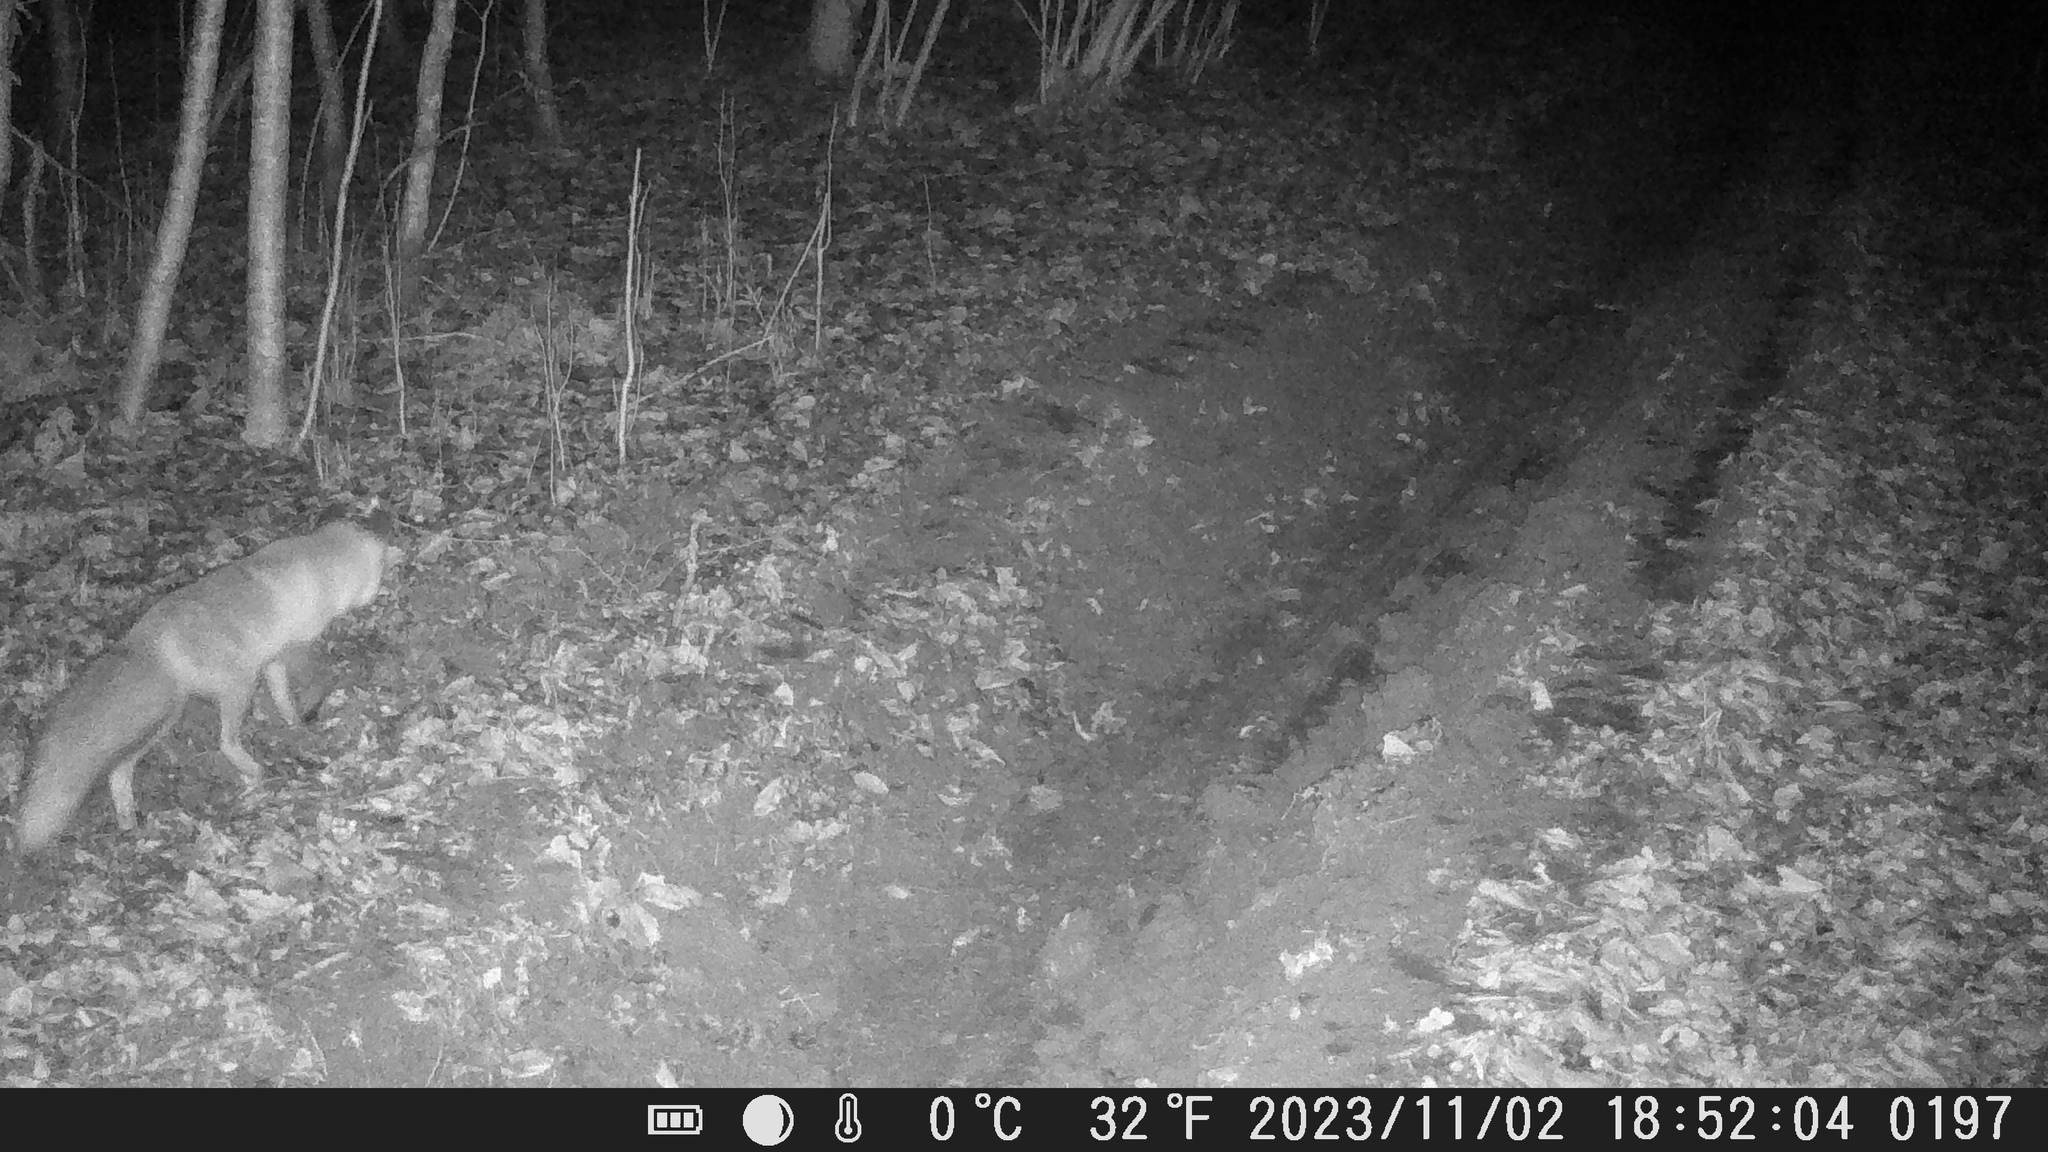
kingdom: Animalia
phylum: Chordata
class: Mammalia
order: Carnivora
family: Canidae
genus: Vulpes
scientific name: Vulpes vulpes
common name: Red fox
